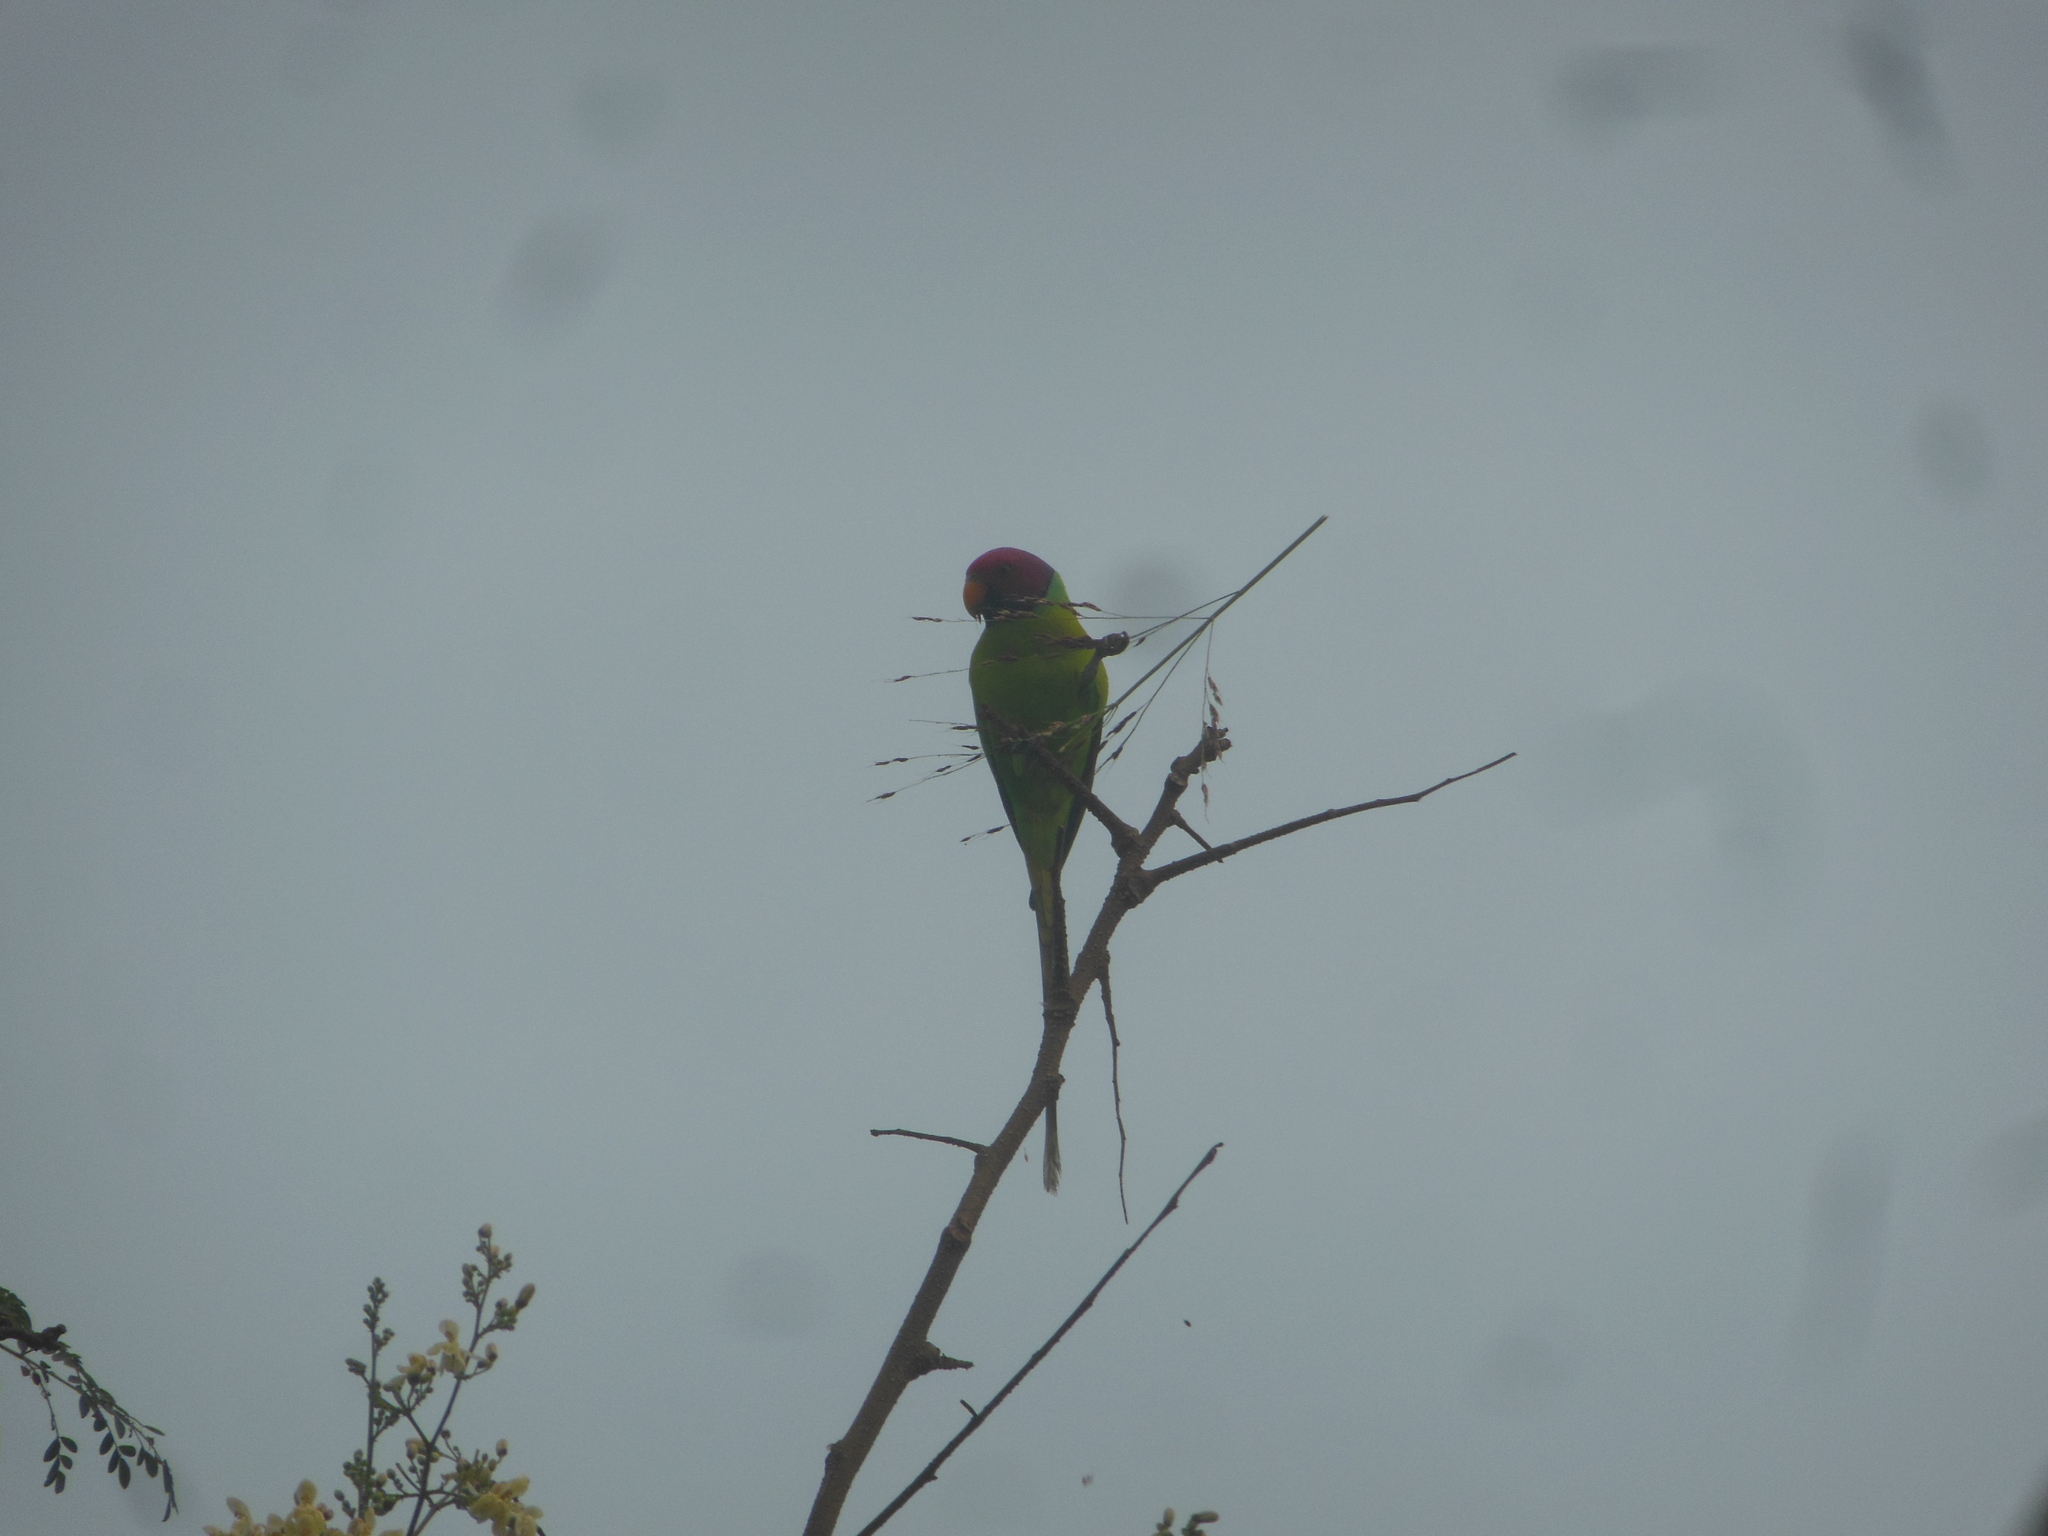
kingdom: Animalia
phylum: Chordata
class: Aves
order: Psittaciformes
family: Psittacidae
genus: Psittacula
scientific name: Psittacula cyanocephala
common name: Plum-headed parakeet
